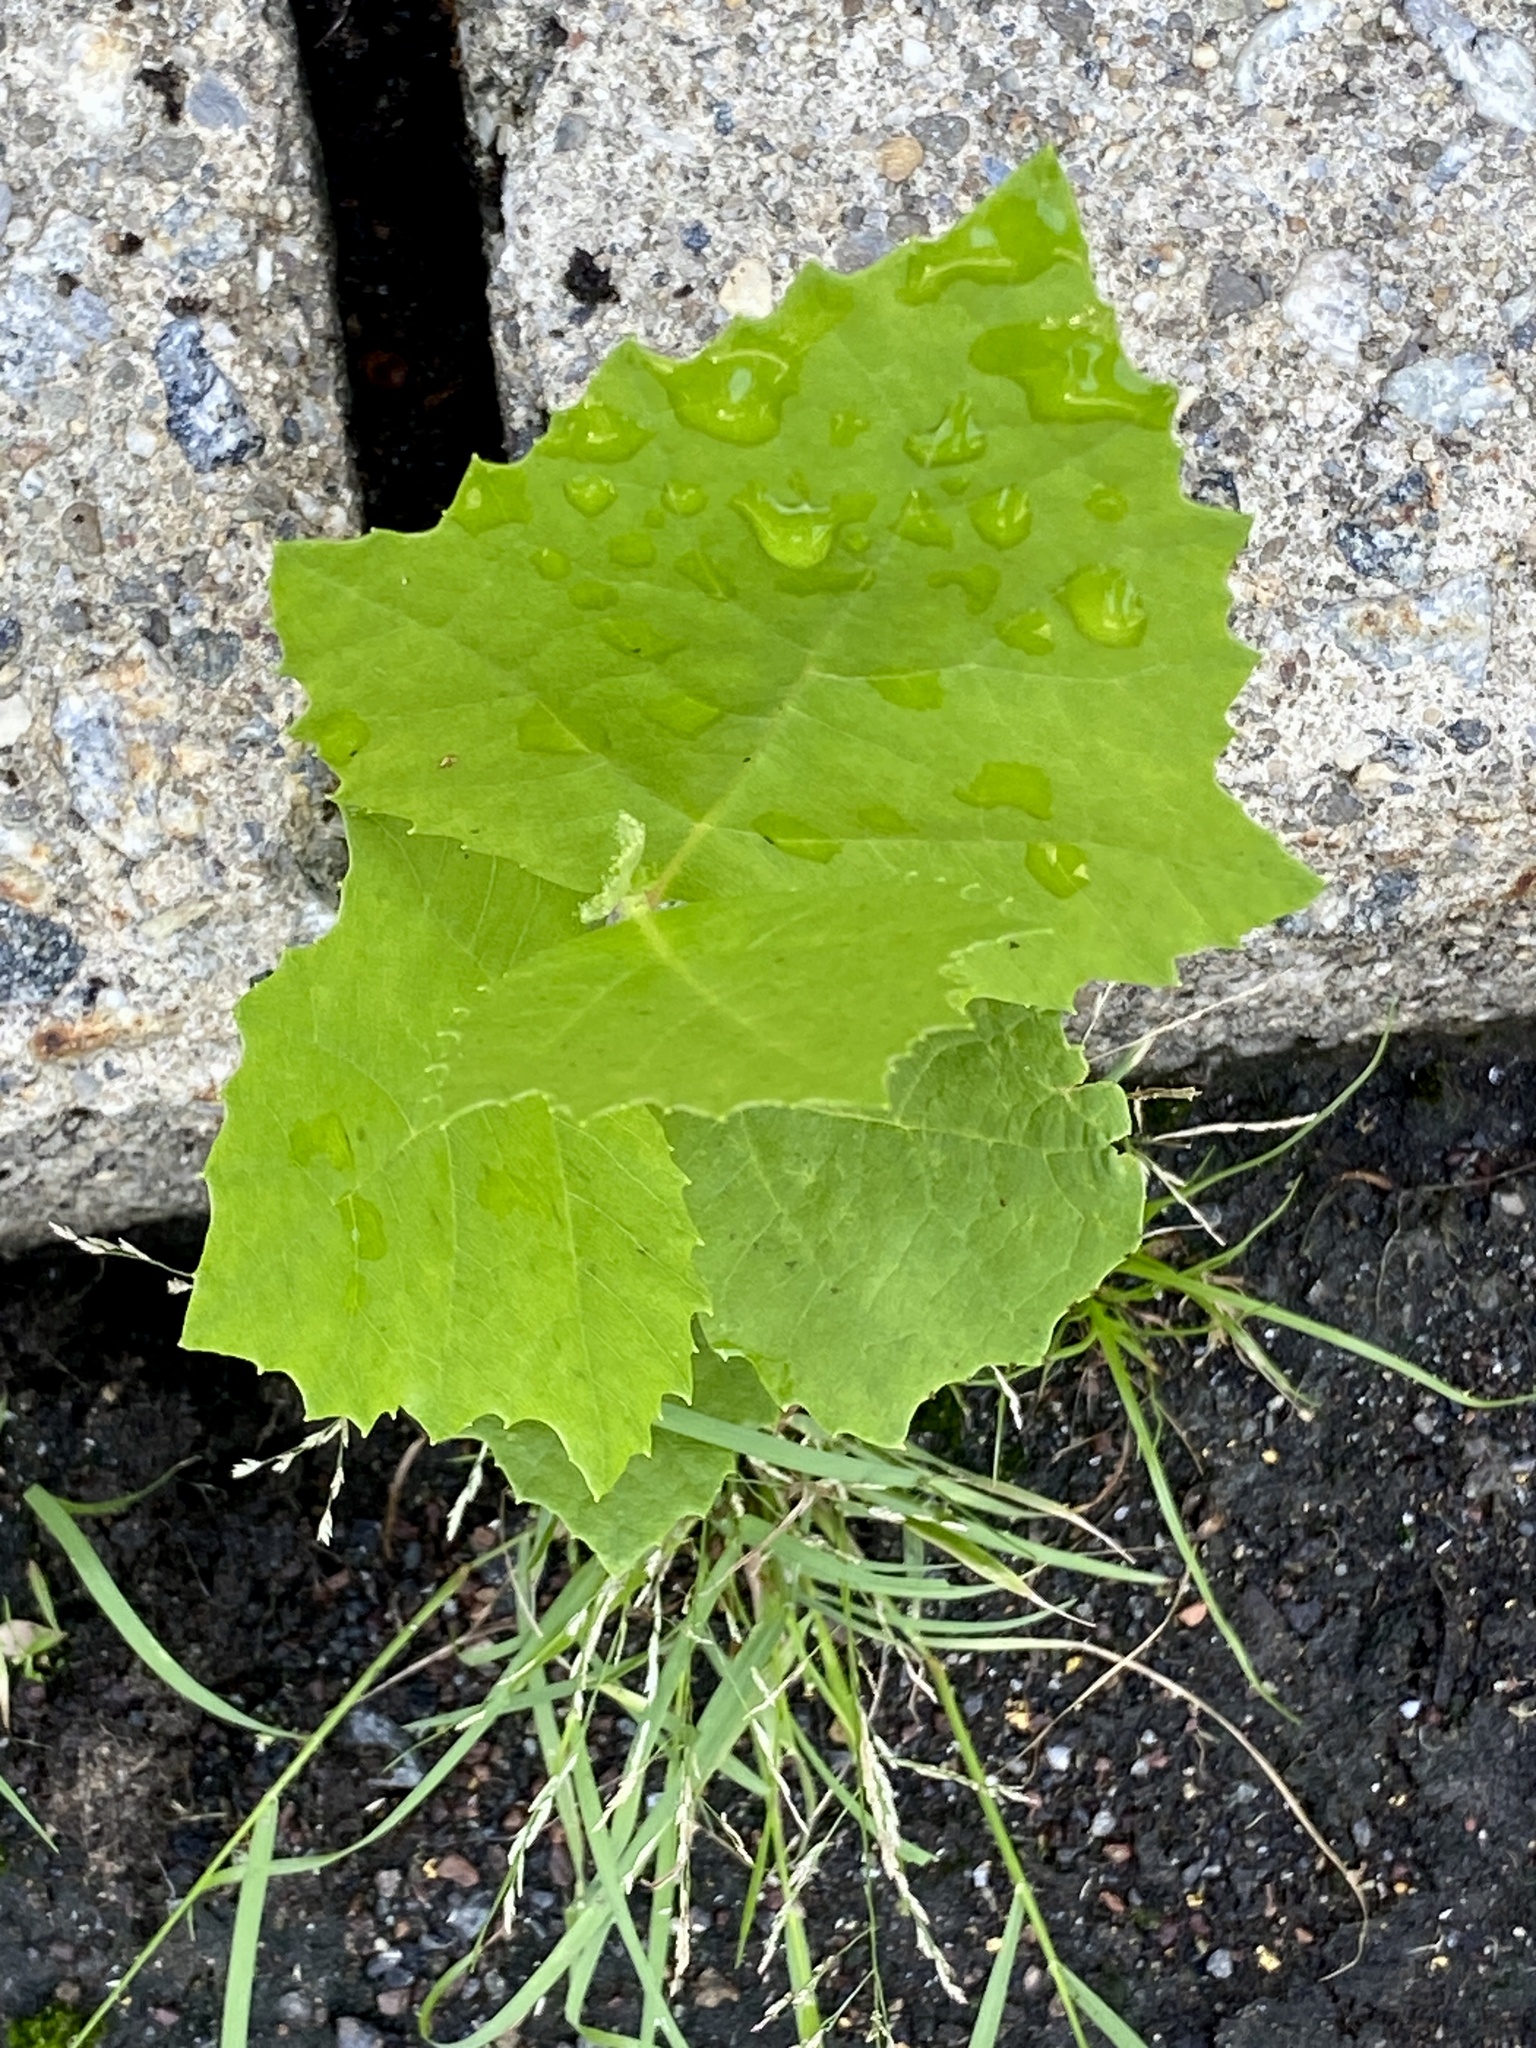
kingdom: Plantae
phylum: Tracheophyta
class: Magnoliopsida
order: Proteales
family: Platanaceae
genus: Platanus
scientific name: Platanus occidentalis
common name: American sycamore
